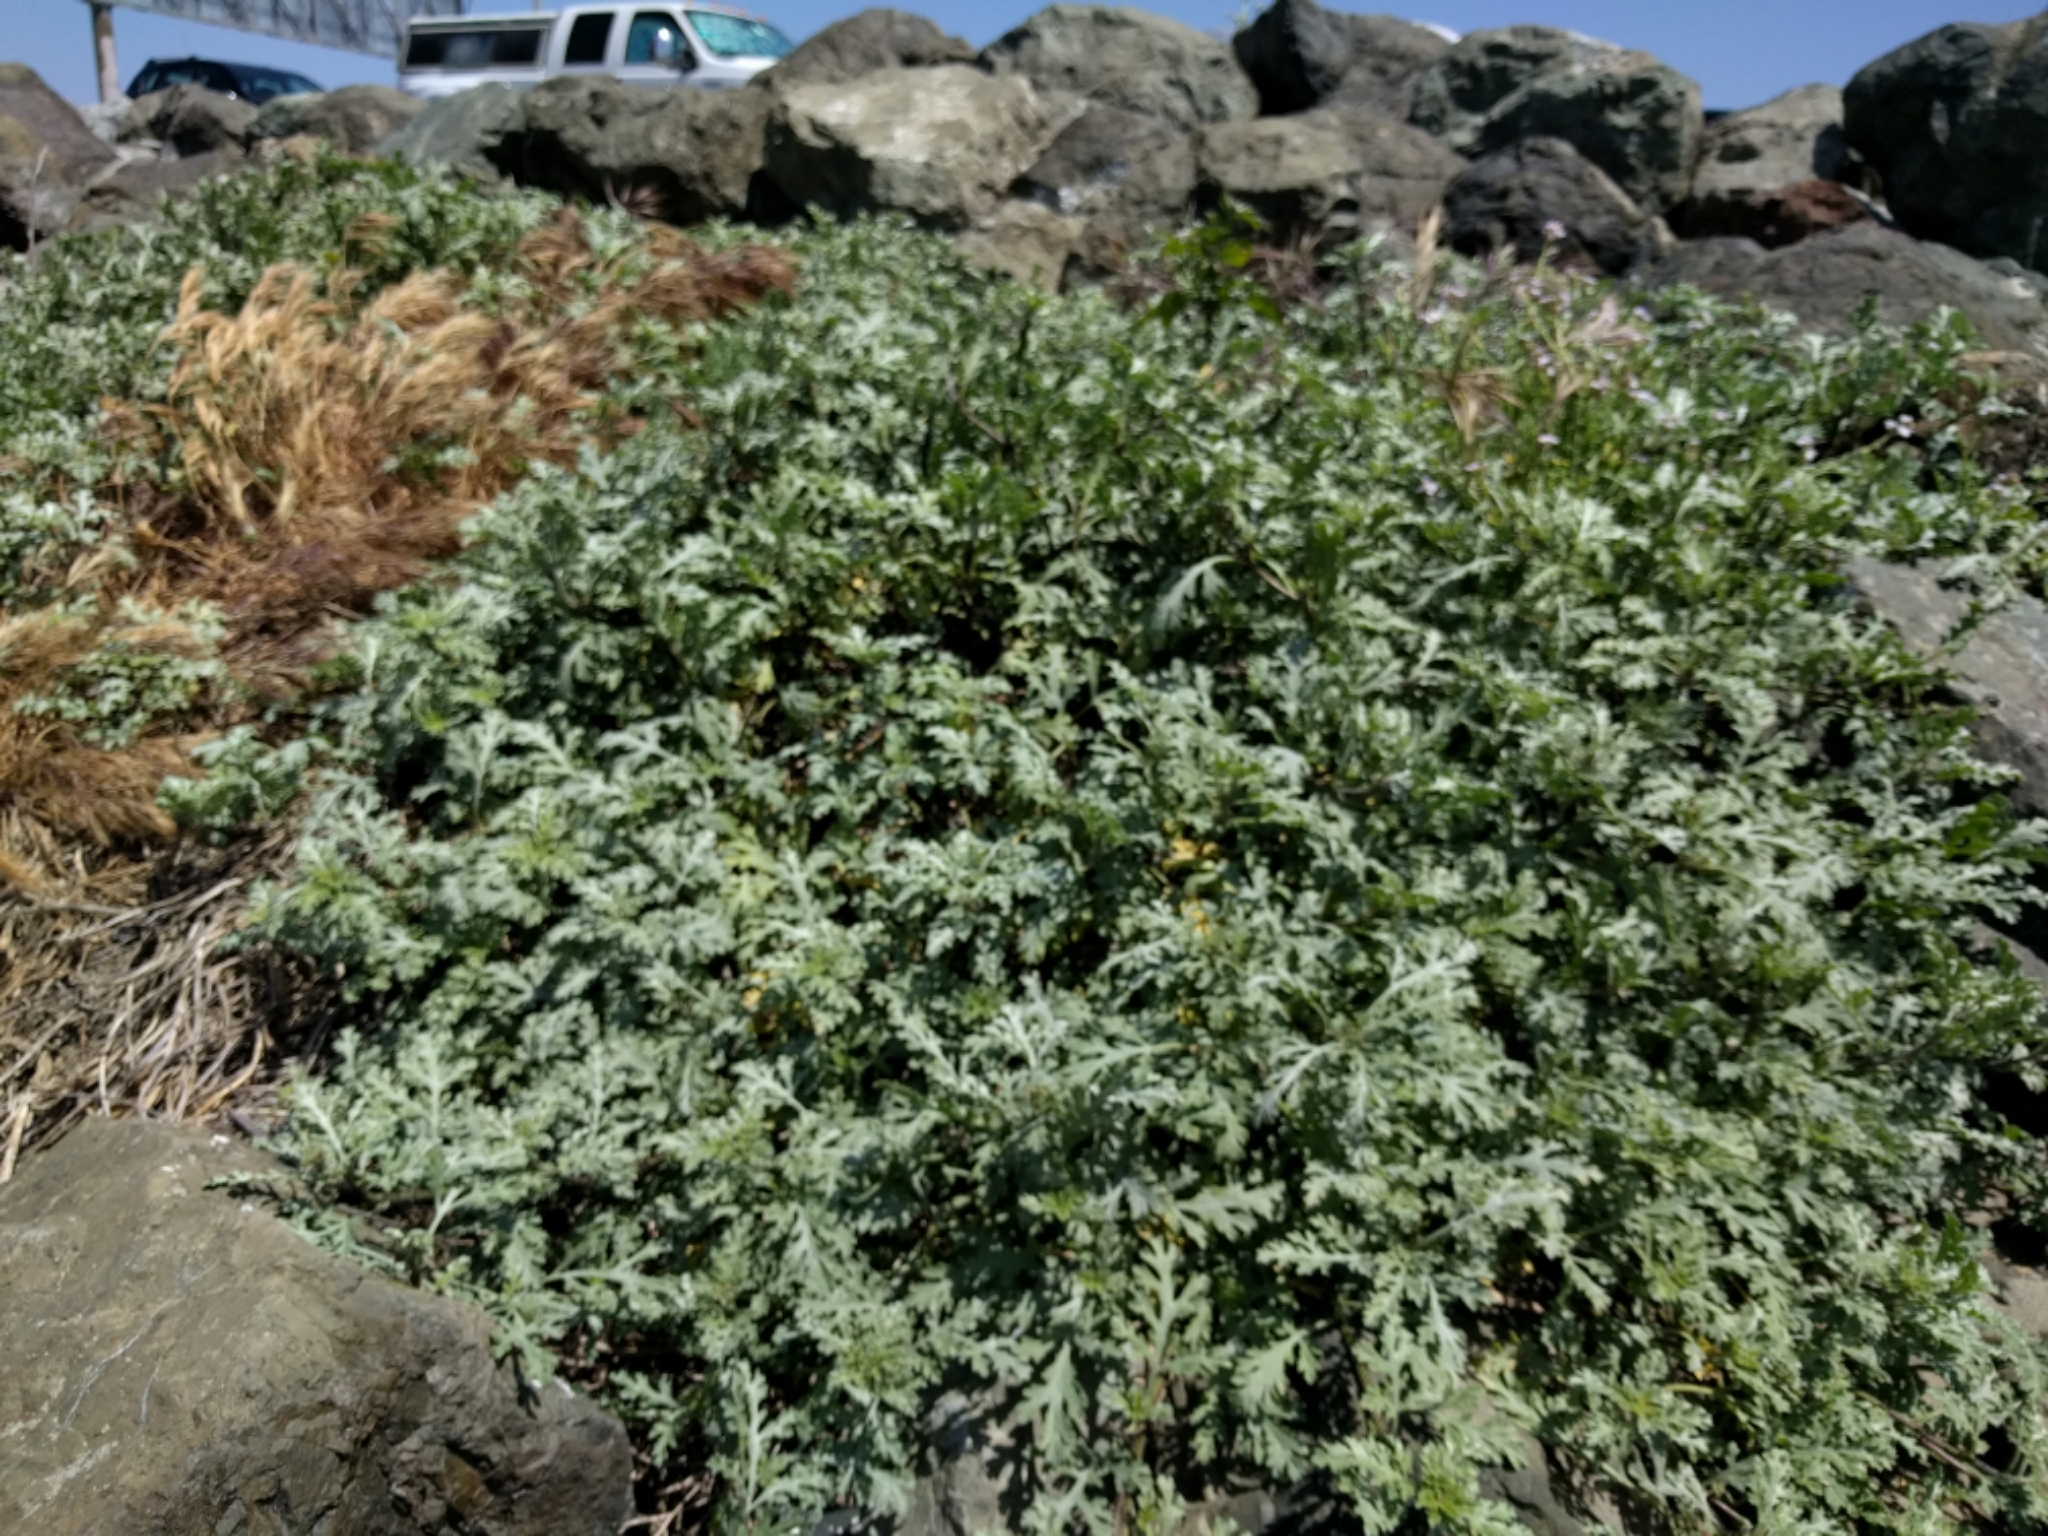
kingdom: Plantae
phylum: Tracheophyta
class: Magnoliopsida
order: Asterales
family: Asteraceae
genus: Ambrosia
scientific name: Ambrosia chamissonis
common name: Beachbur
